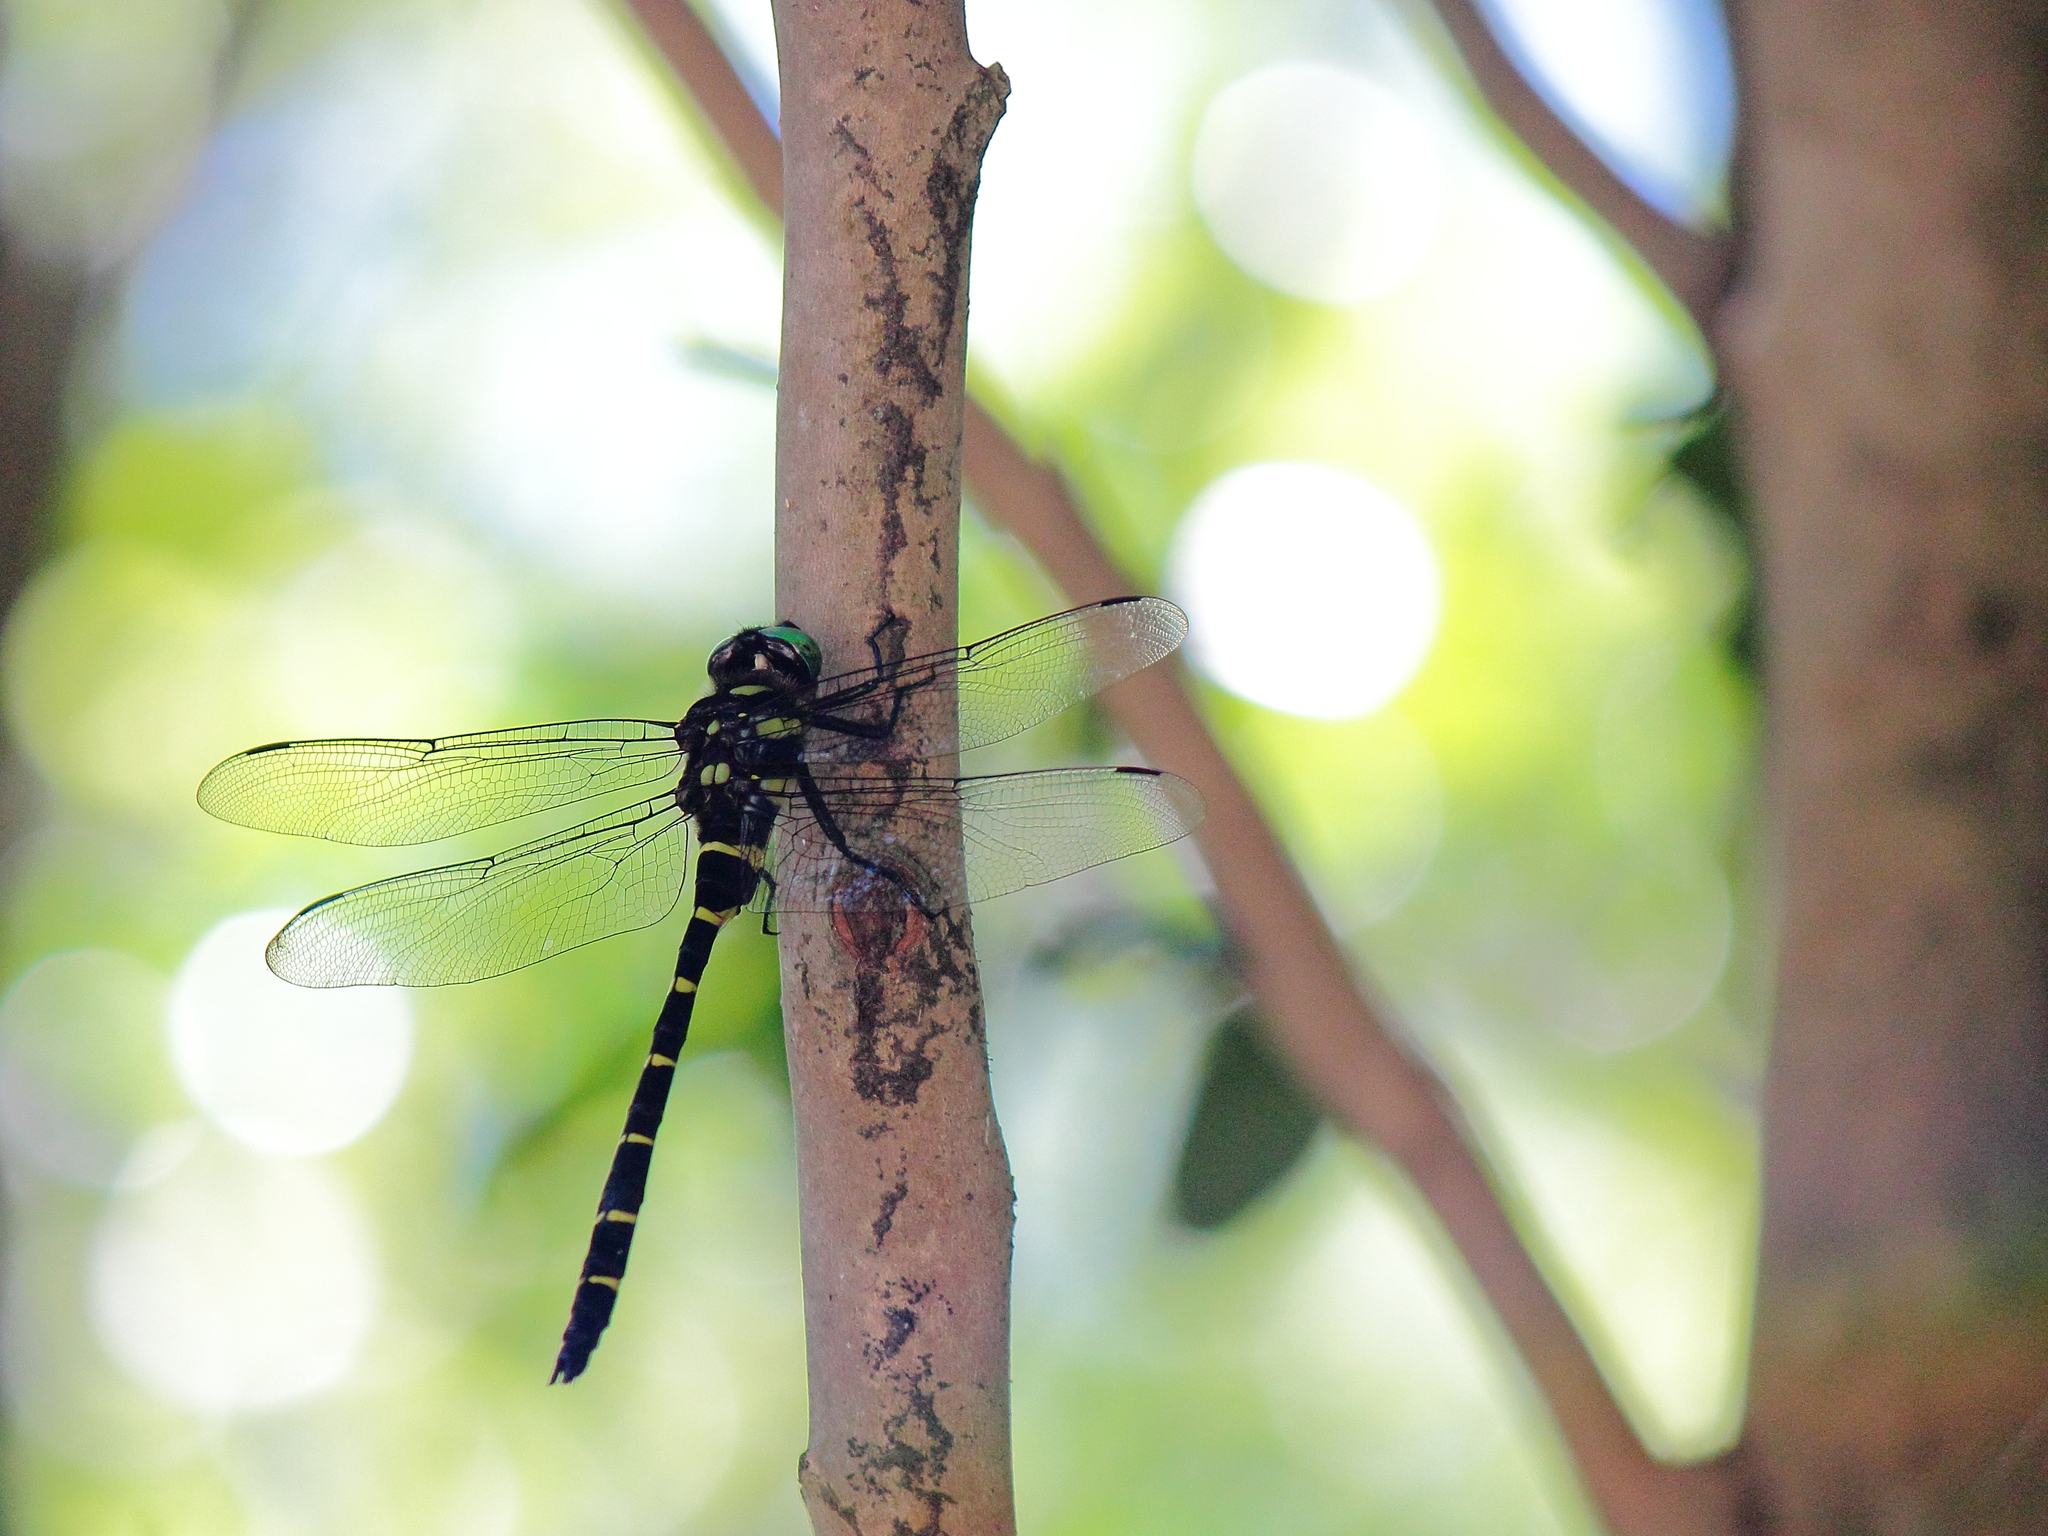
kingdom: Animalia
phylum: Arthropoda
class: Insecta
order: Odonata
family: Cordulegastridae
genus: Anotogaster
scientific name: Anotogaster sieboldii
